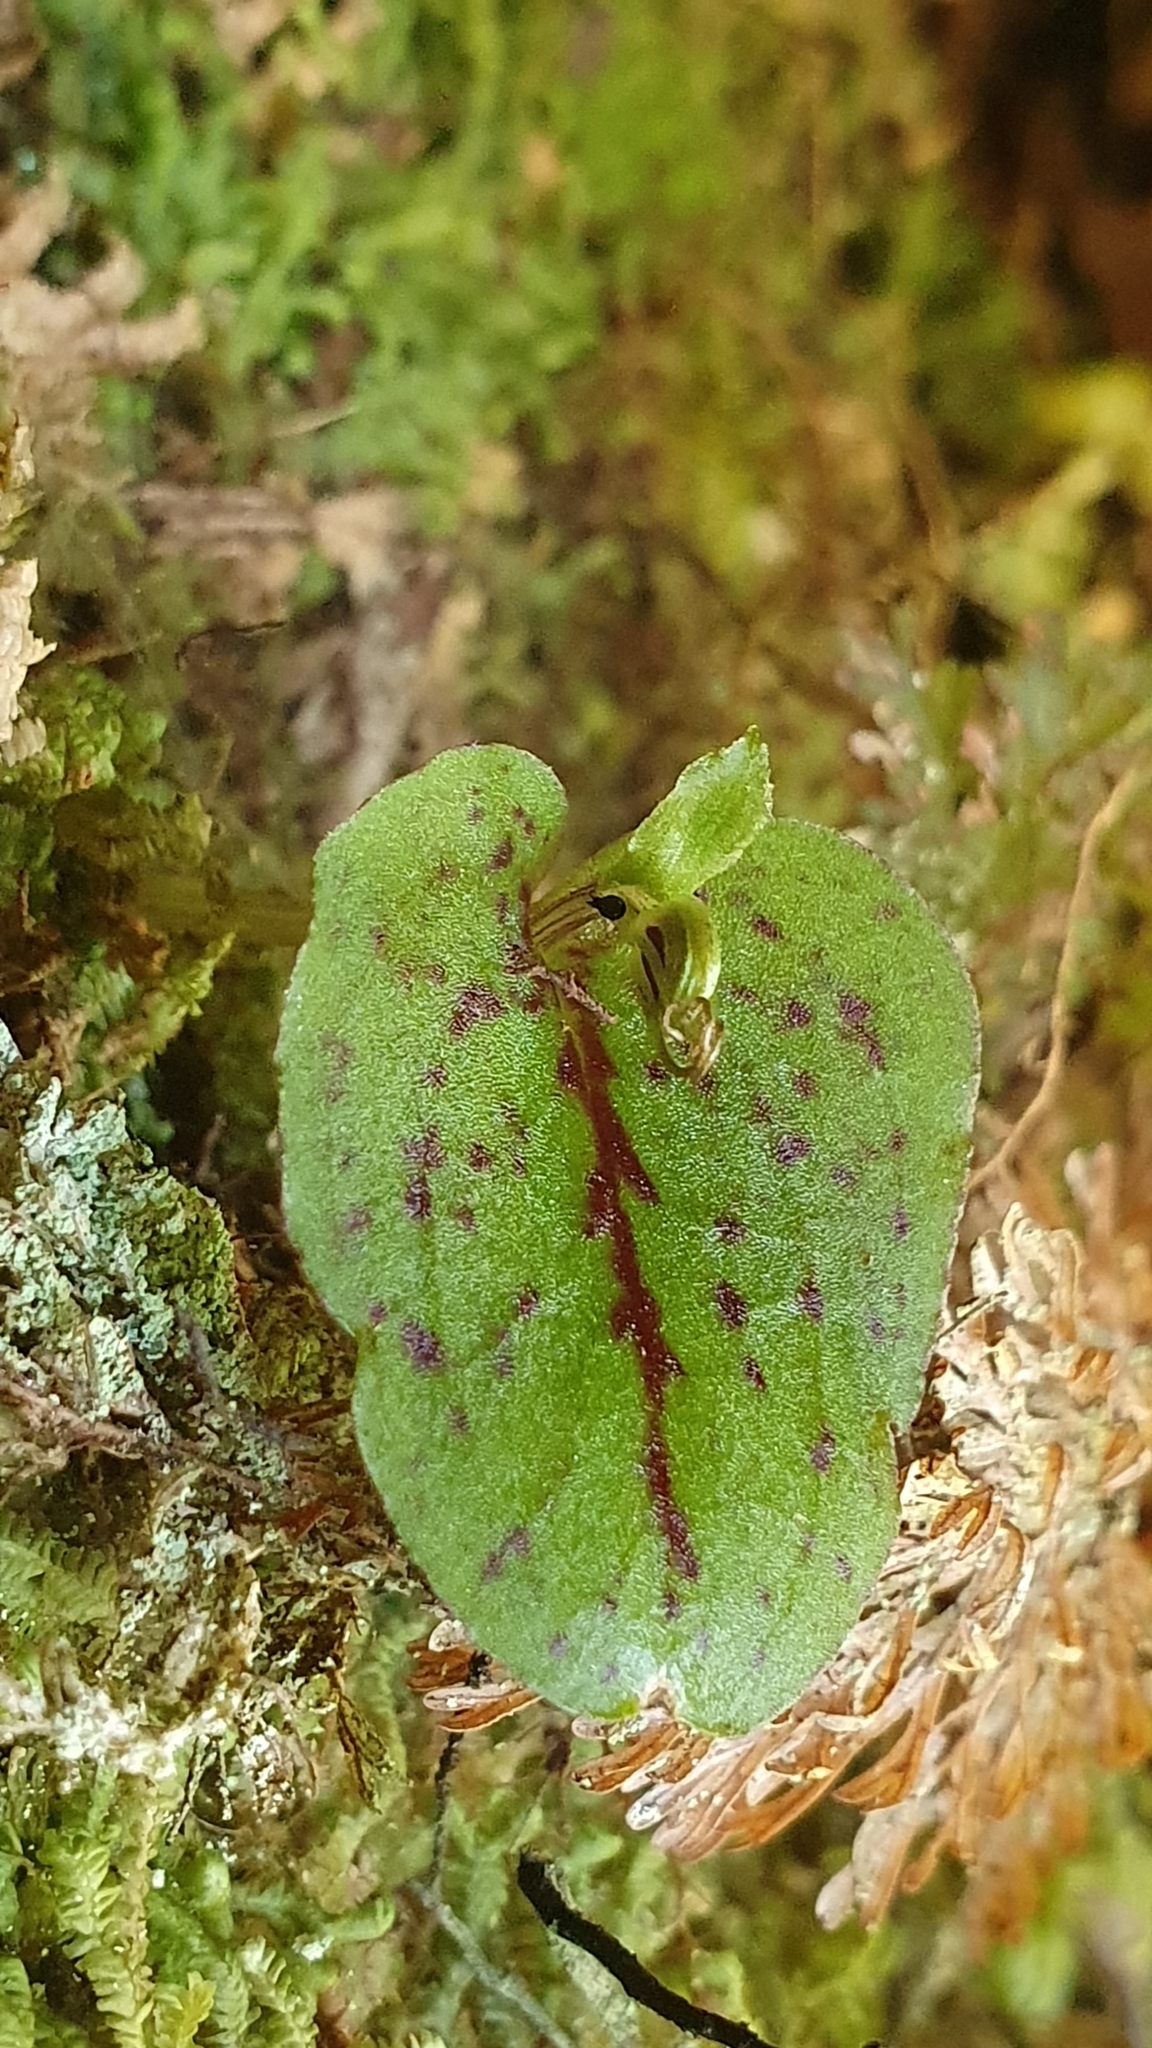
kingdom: Plantae
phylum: Tracheophyta
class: Liliopsida
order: Asparagales
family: Orchidaceae
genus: Corybas
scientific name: Corybas oblongus
